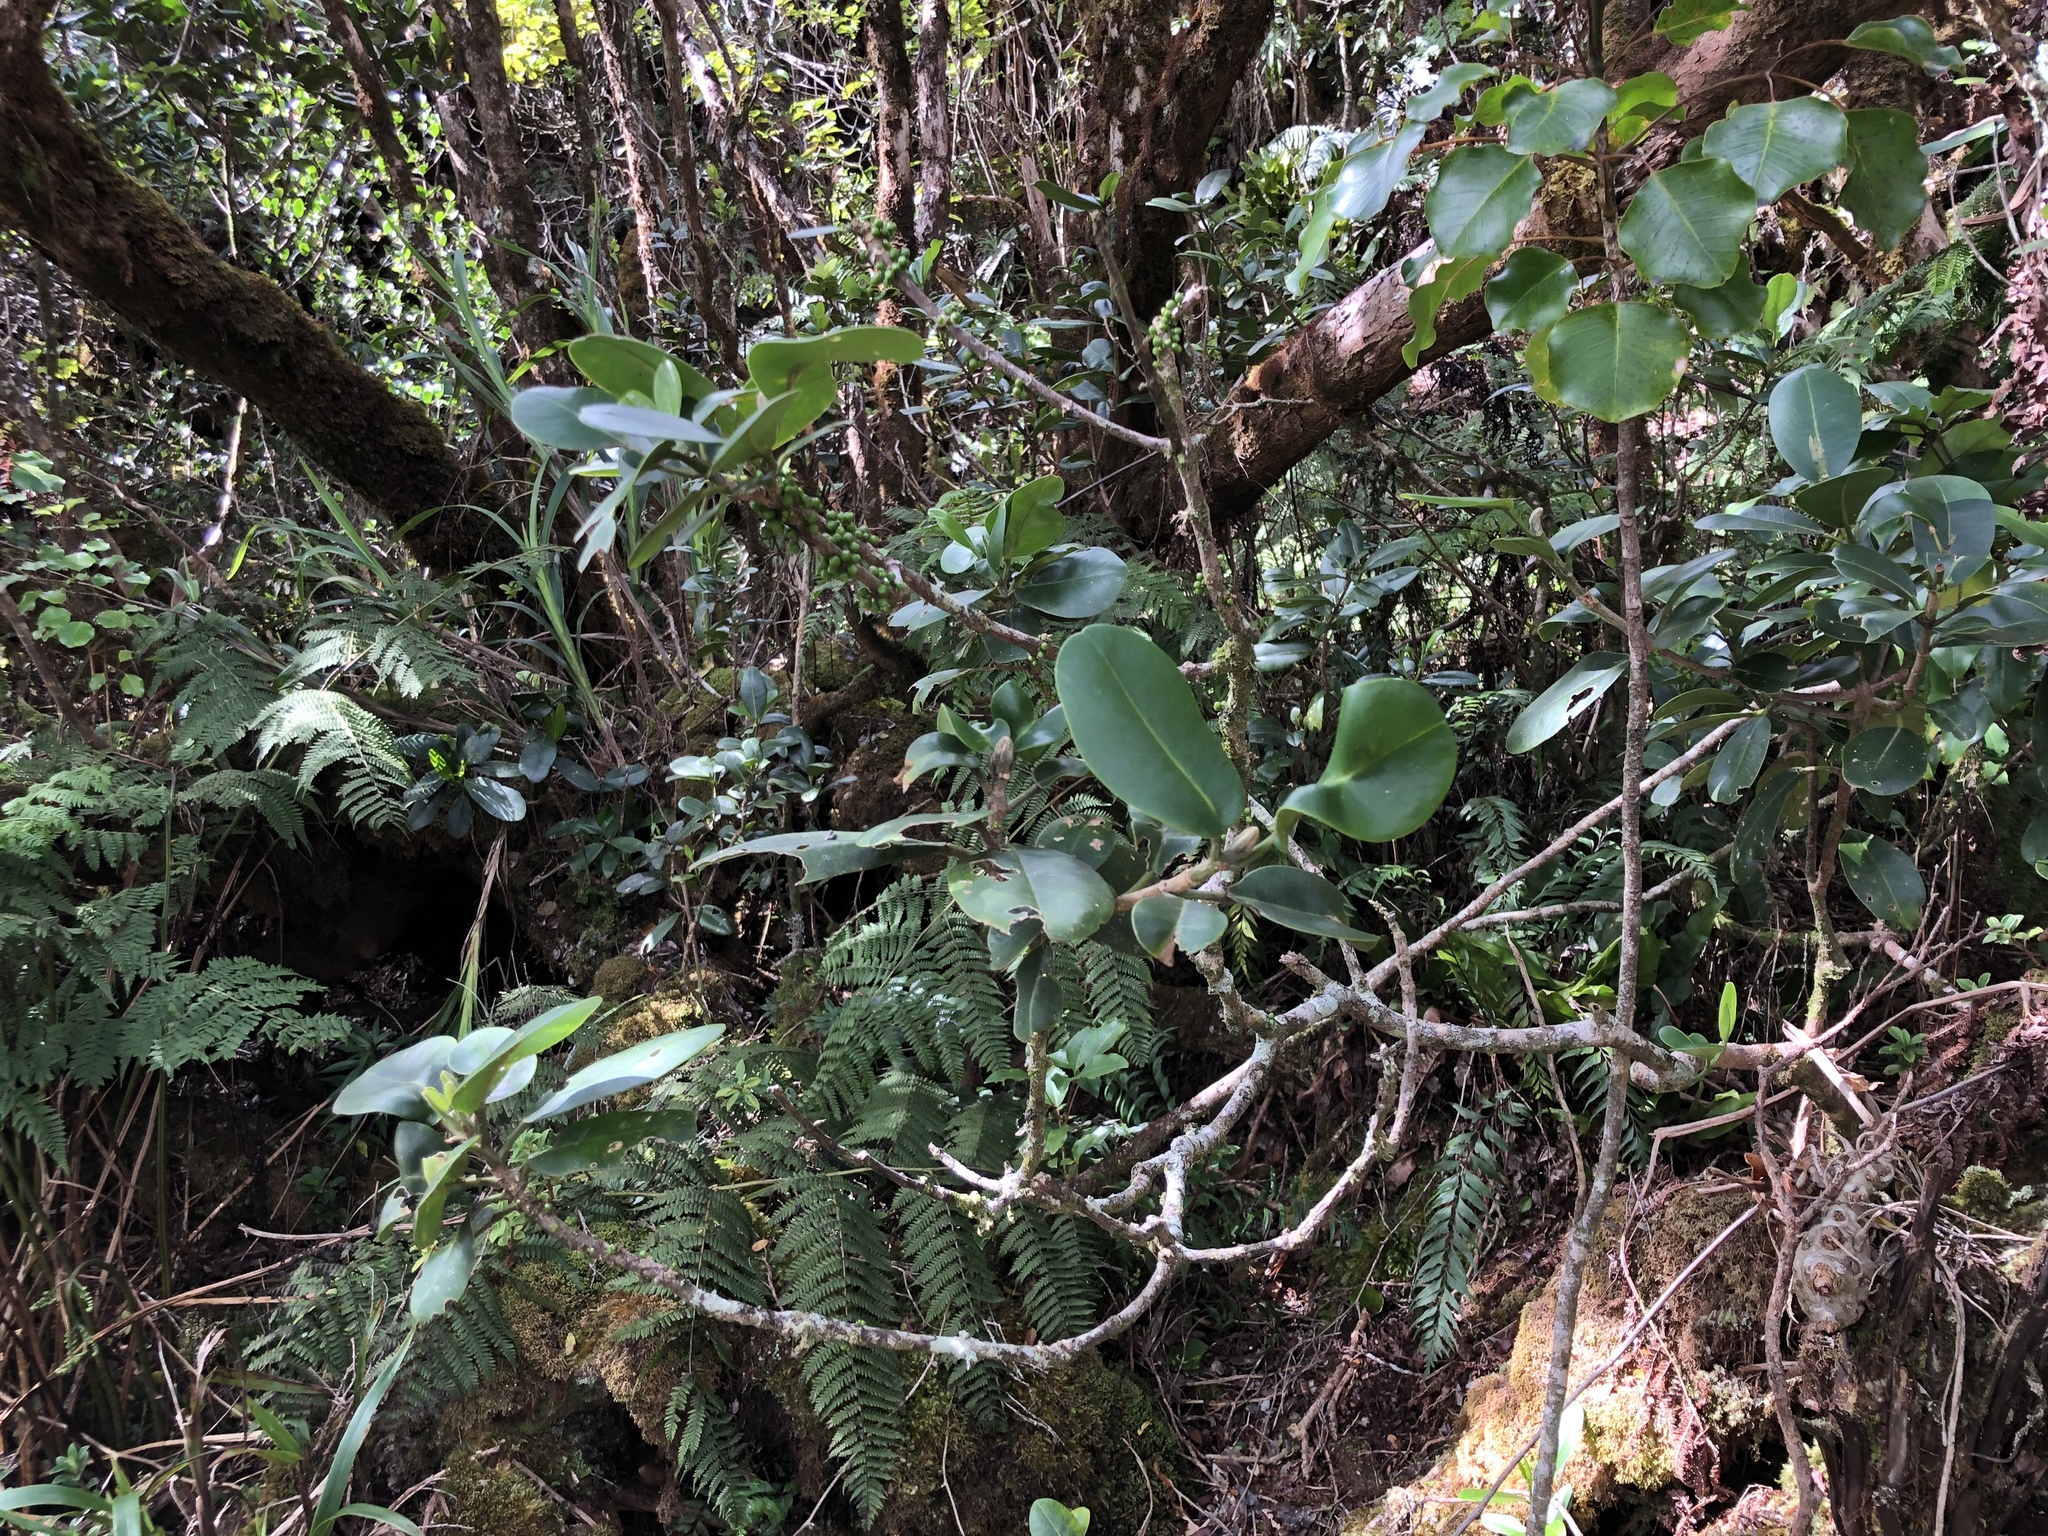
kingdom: Plantae
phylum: Tracheophyta
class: Magnoliopsida
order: Sapindales
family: Rutaceae
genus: Melicope
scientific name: Melicope clusiifolia
